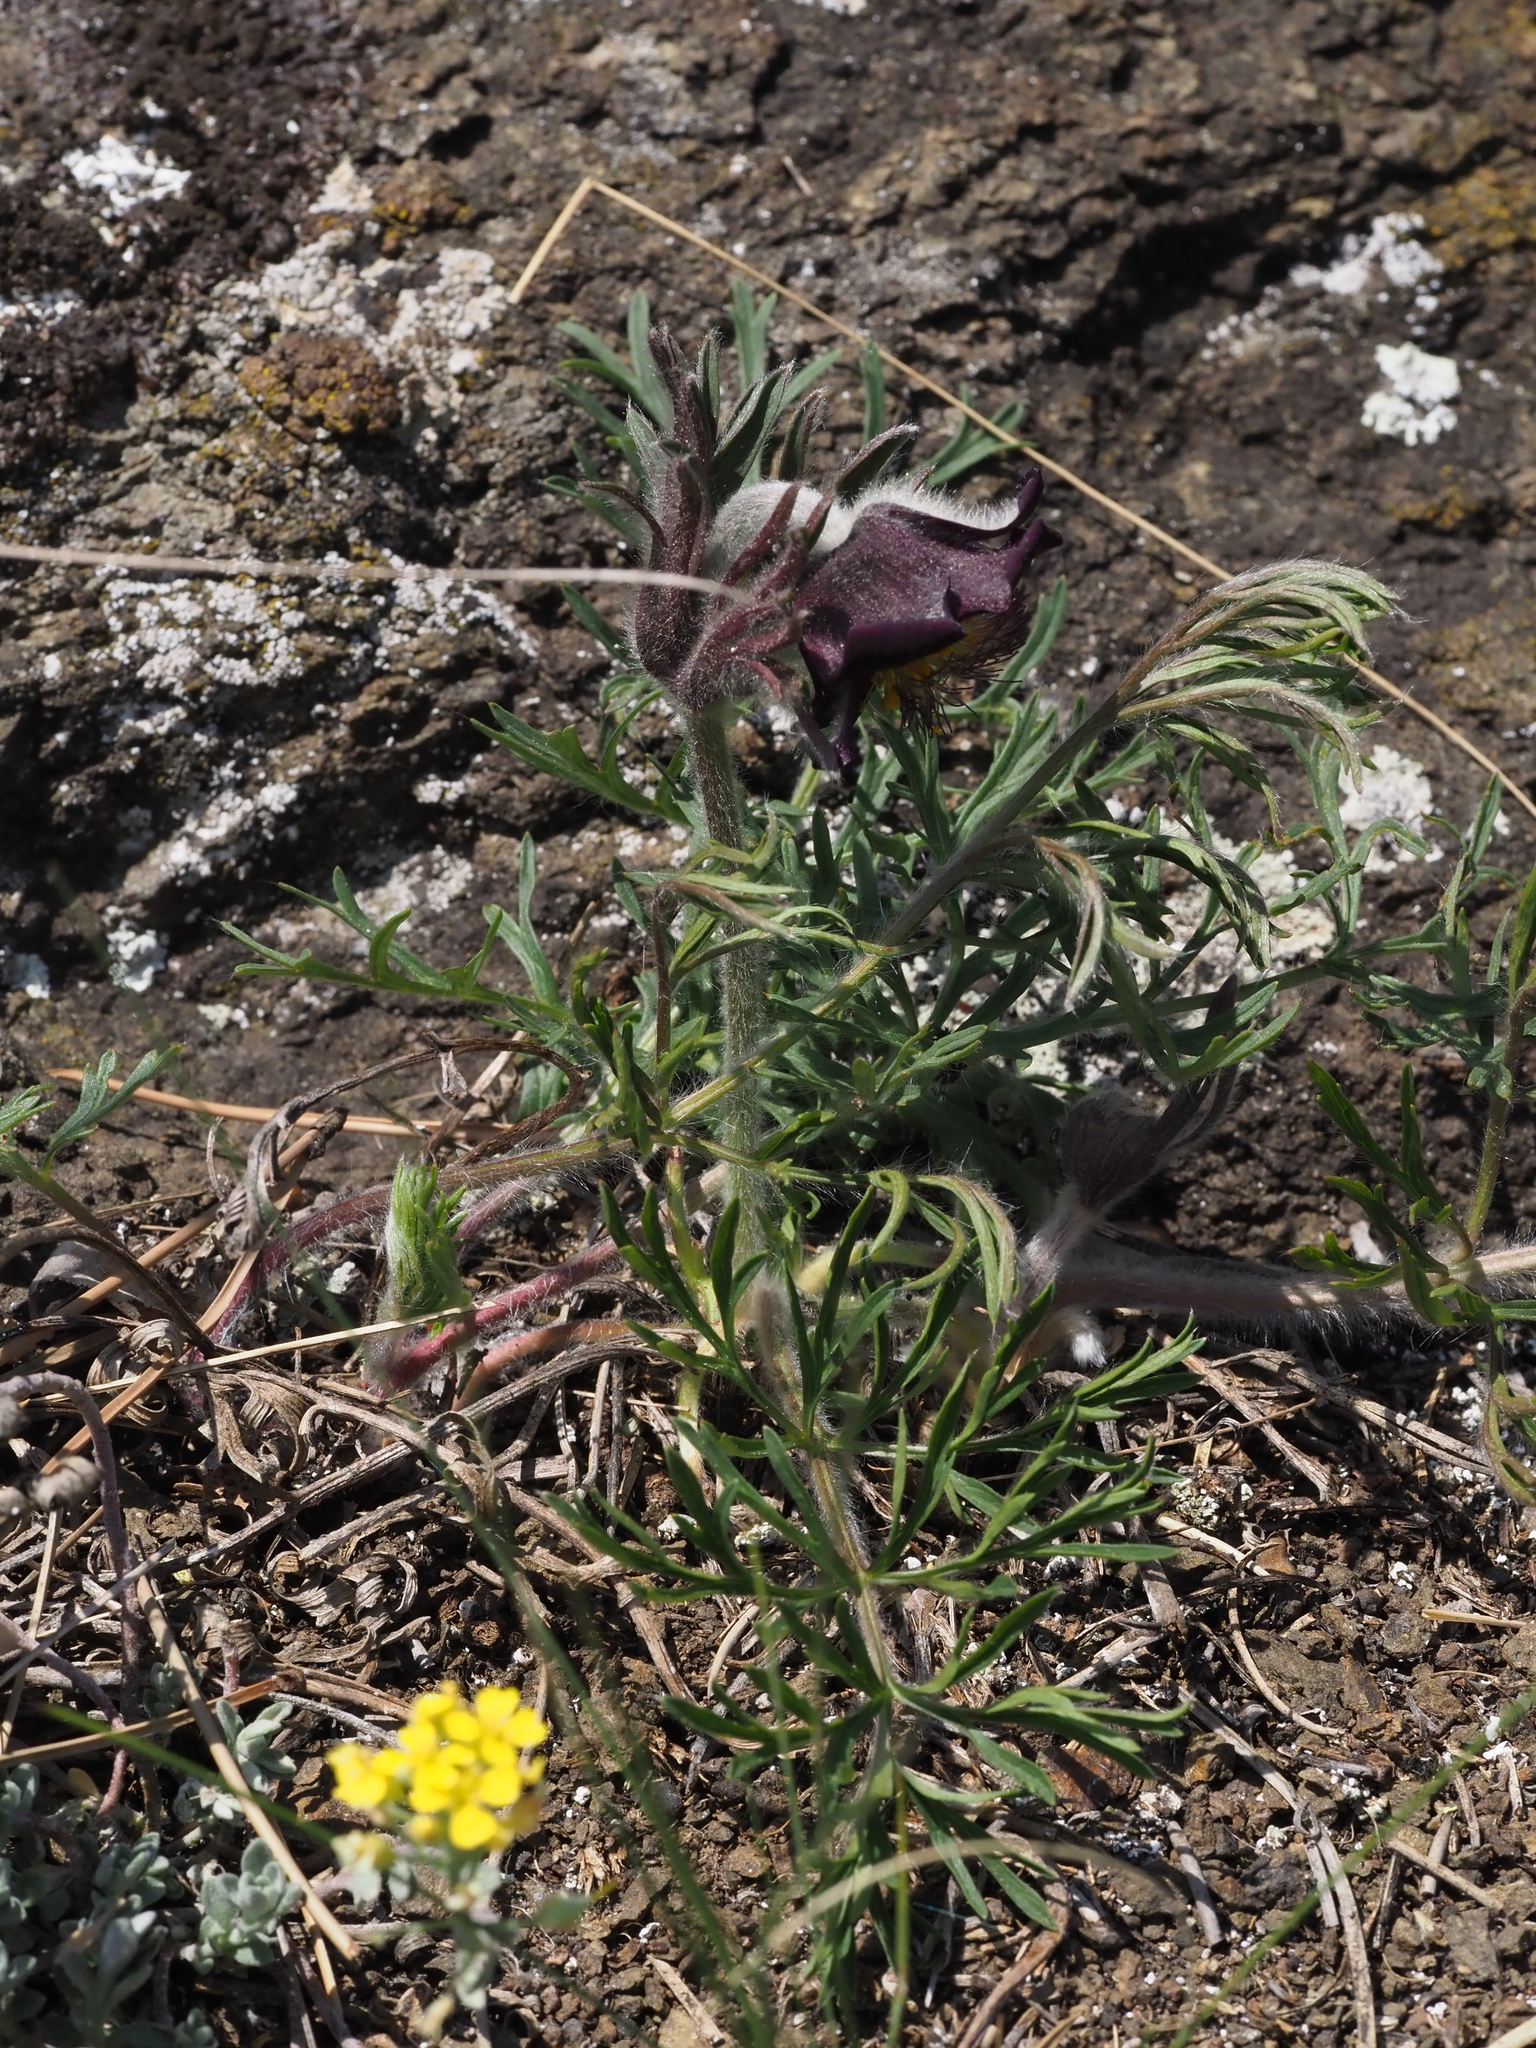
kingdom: Plantae
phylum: Tracheophyta
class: Magnoliopsida
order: Ranunculales
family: Ranunculaceae
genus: Pulsatilla
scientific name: Pulsatilla pratensis
